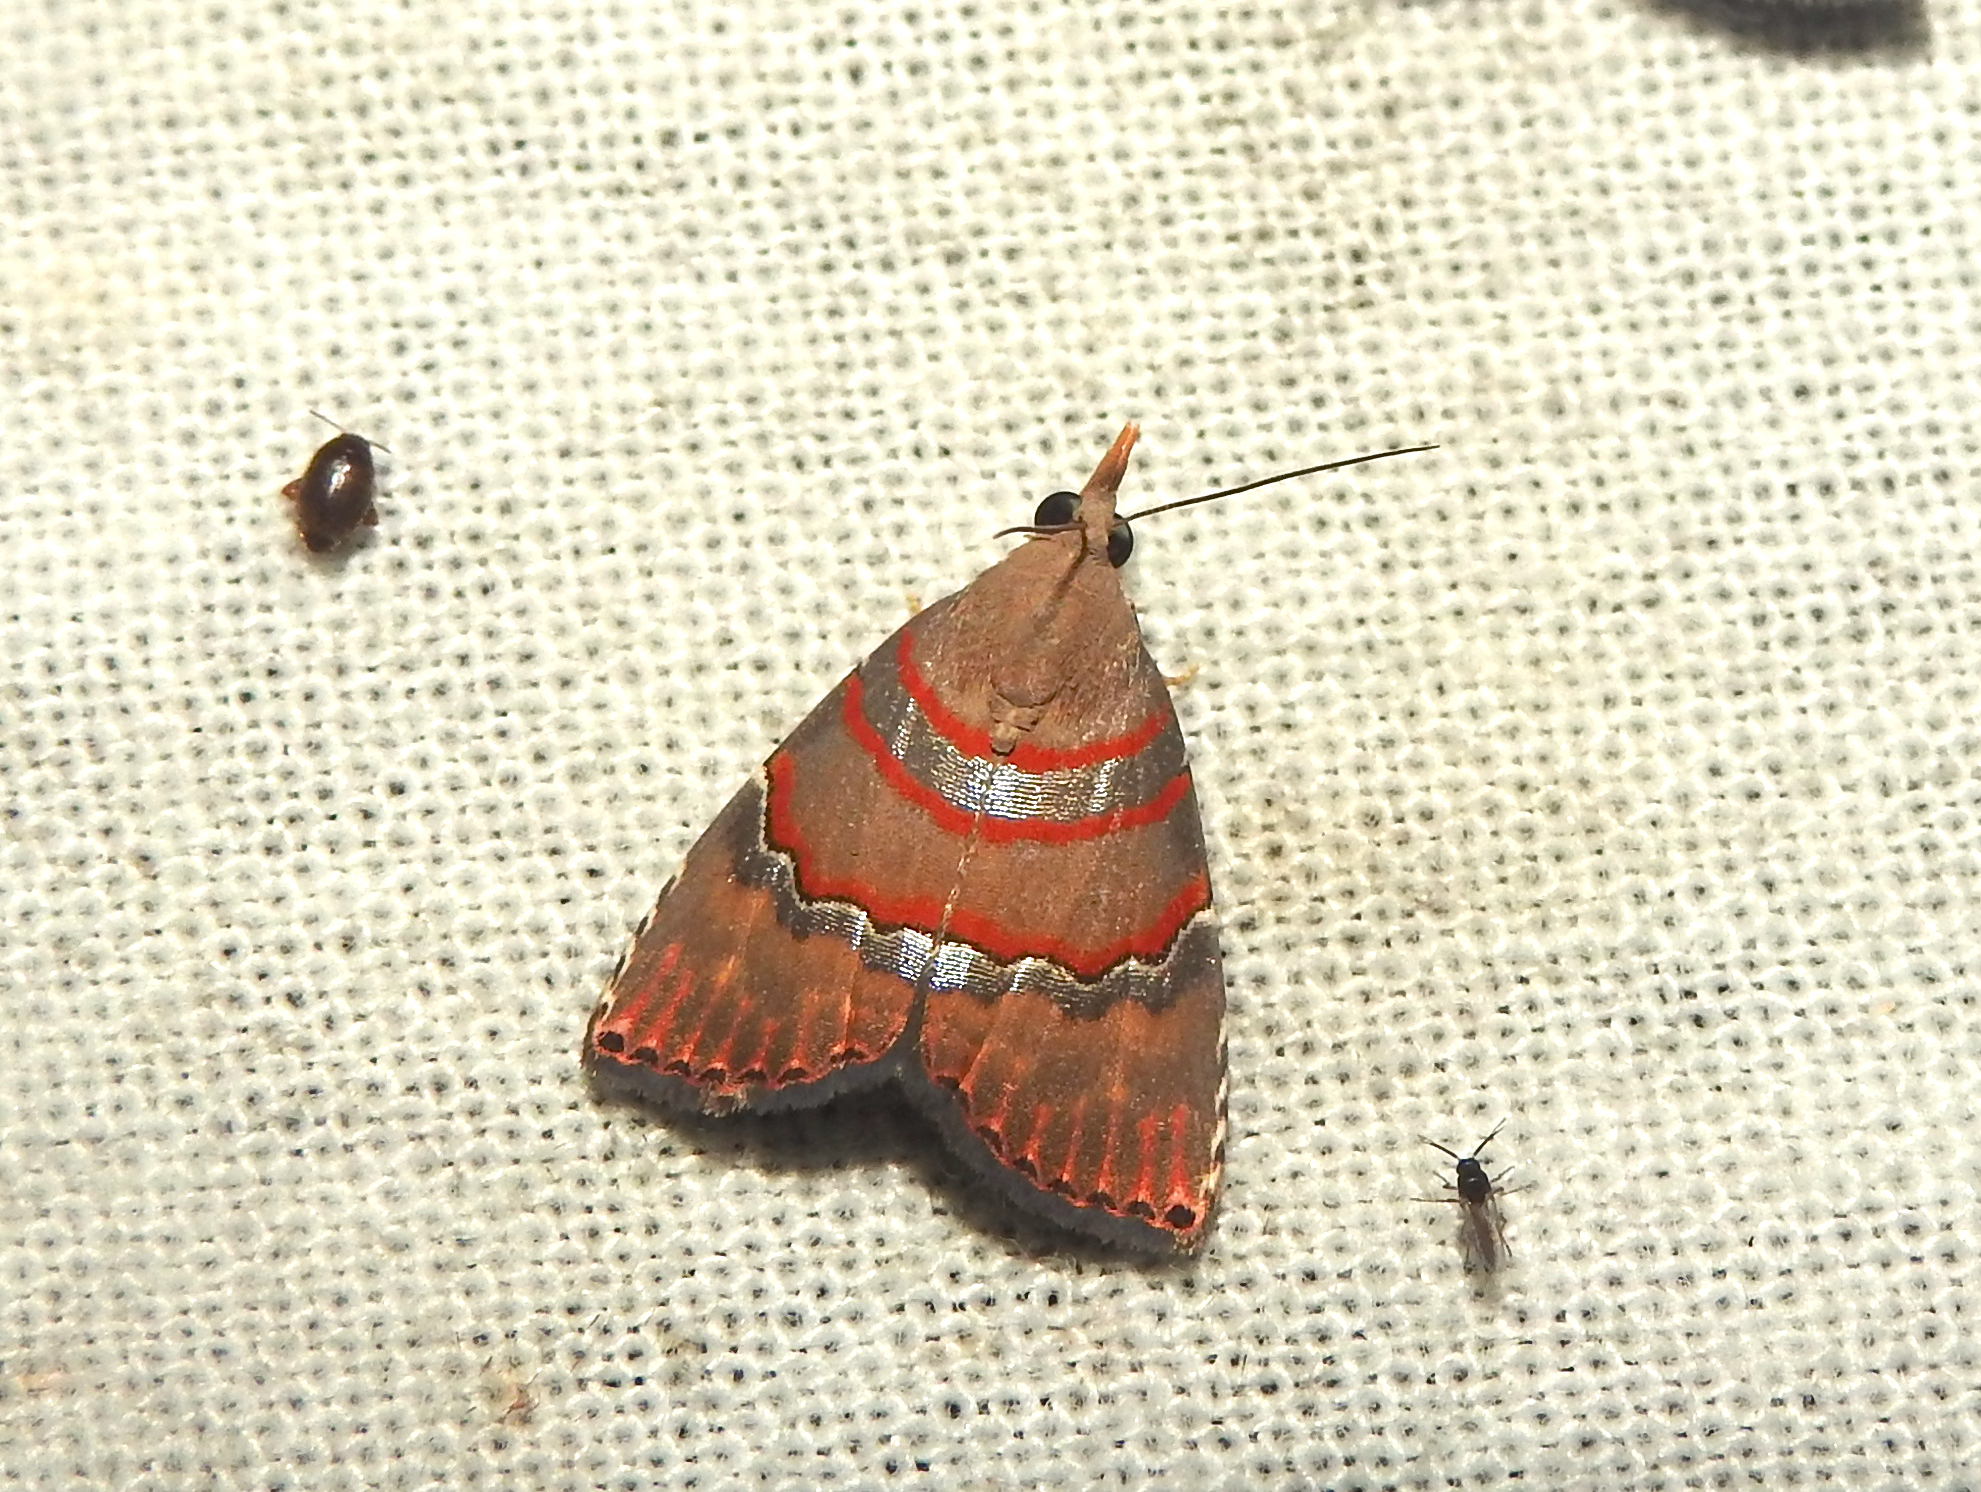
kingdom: Animalia
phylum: Arthropoda
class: Insecta
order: Lepidoptera
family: Erebidae
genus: Nolasena
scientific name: Nolasena ferrifervens
